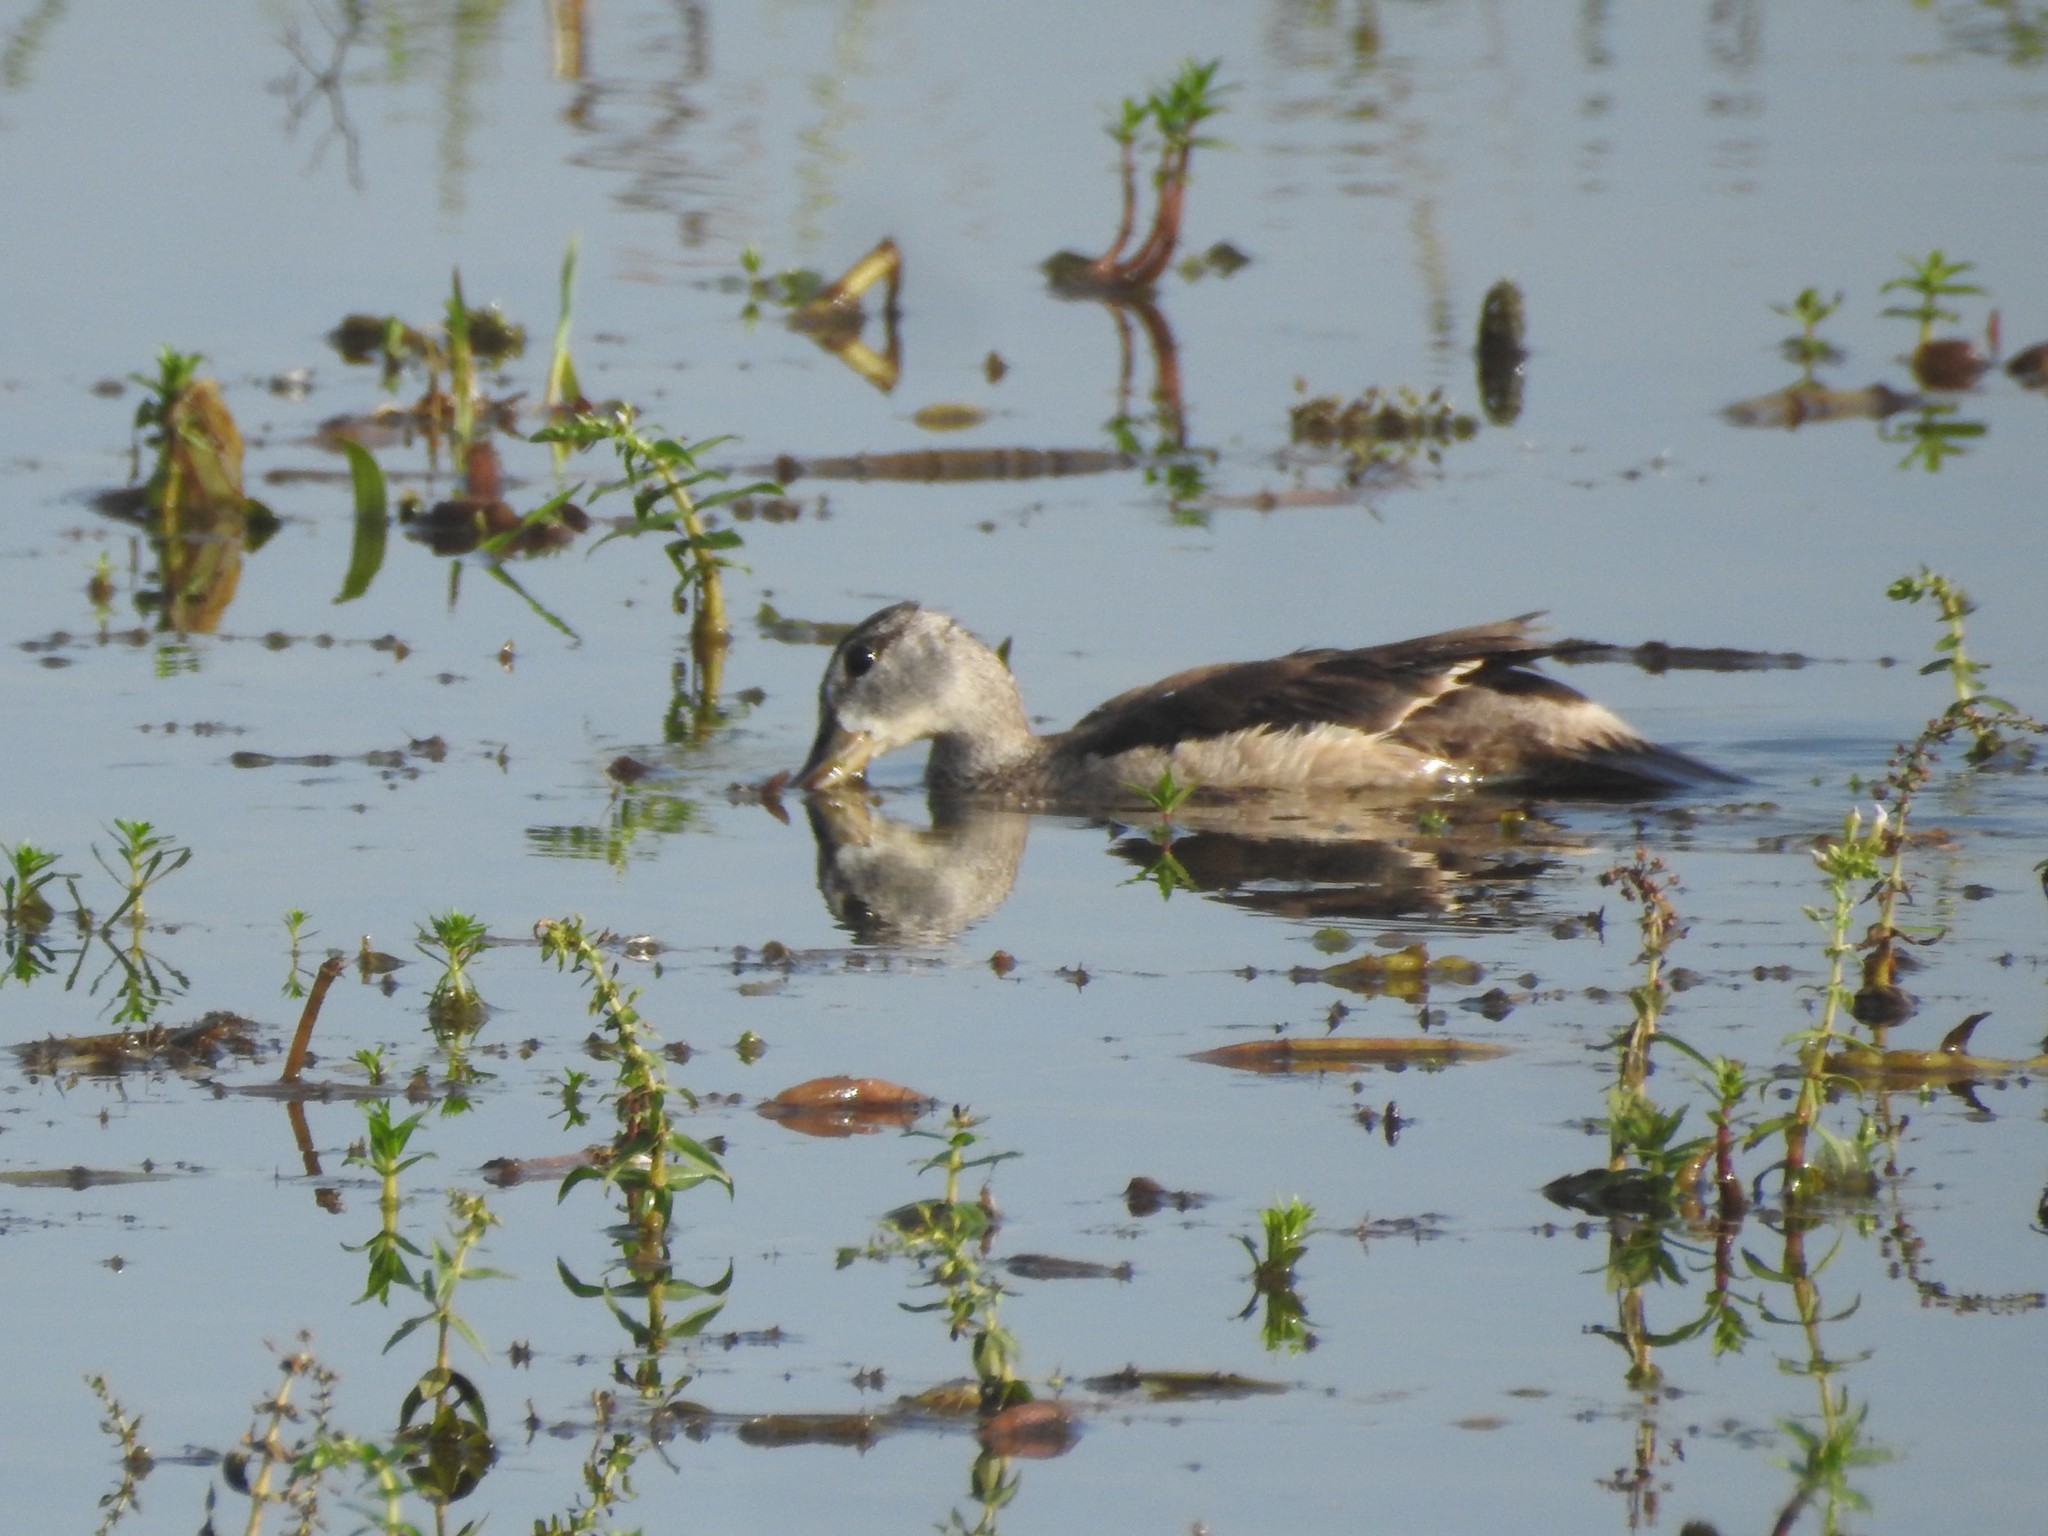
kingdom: Animalia
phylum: Chordata
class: Aves
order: Anseriformes
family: Anatidae
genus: Nettapus
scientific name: Nettapus coromandelianus
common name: Cotton pygmy-goose
